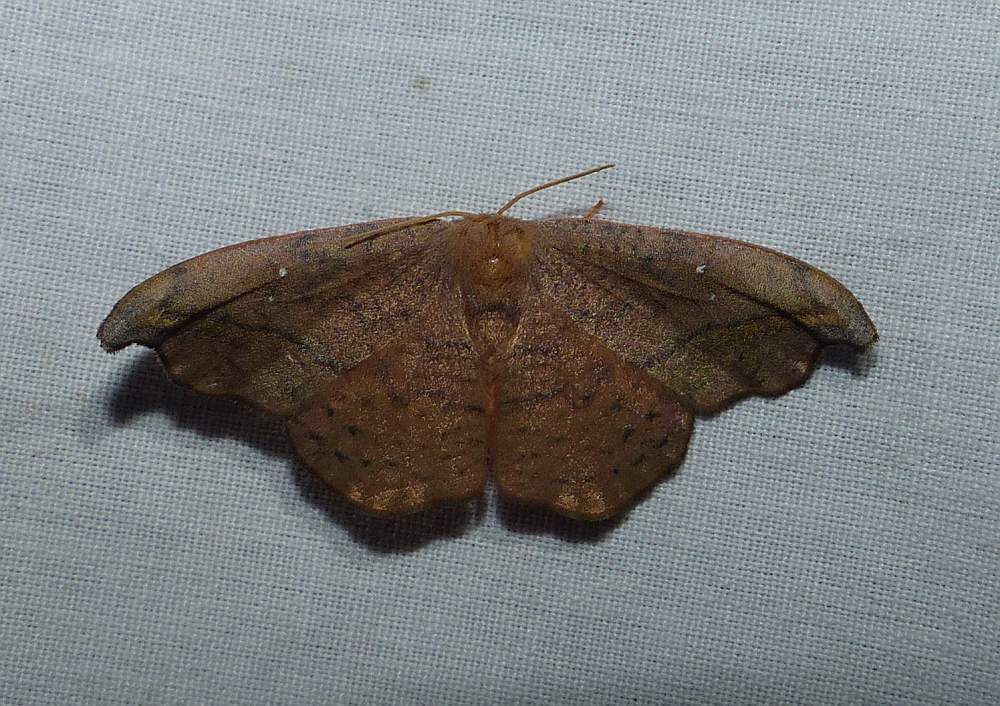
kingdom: Animalia
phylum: Arthropoda
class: Insecta
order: Lepidoptera
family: Drepanidae
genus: Oreta
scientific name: Oreta rosea
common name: Rose hooktip
